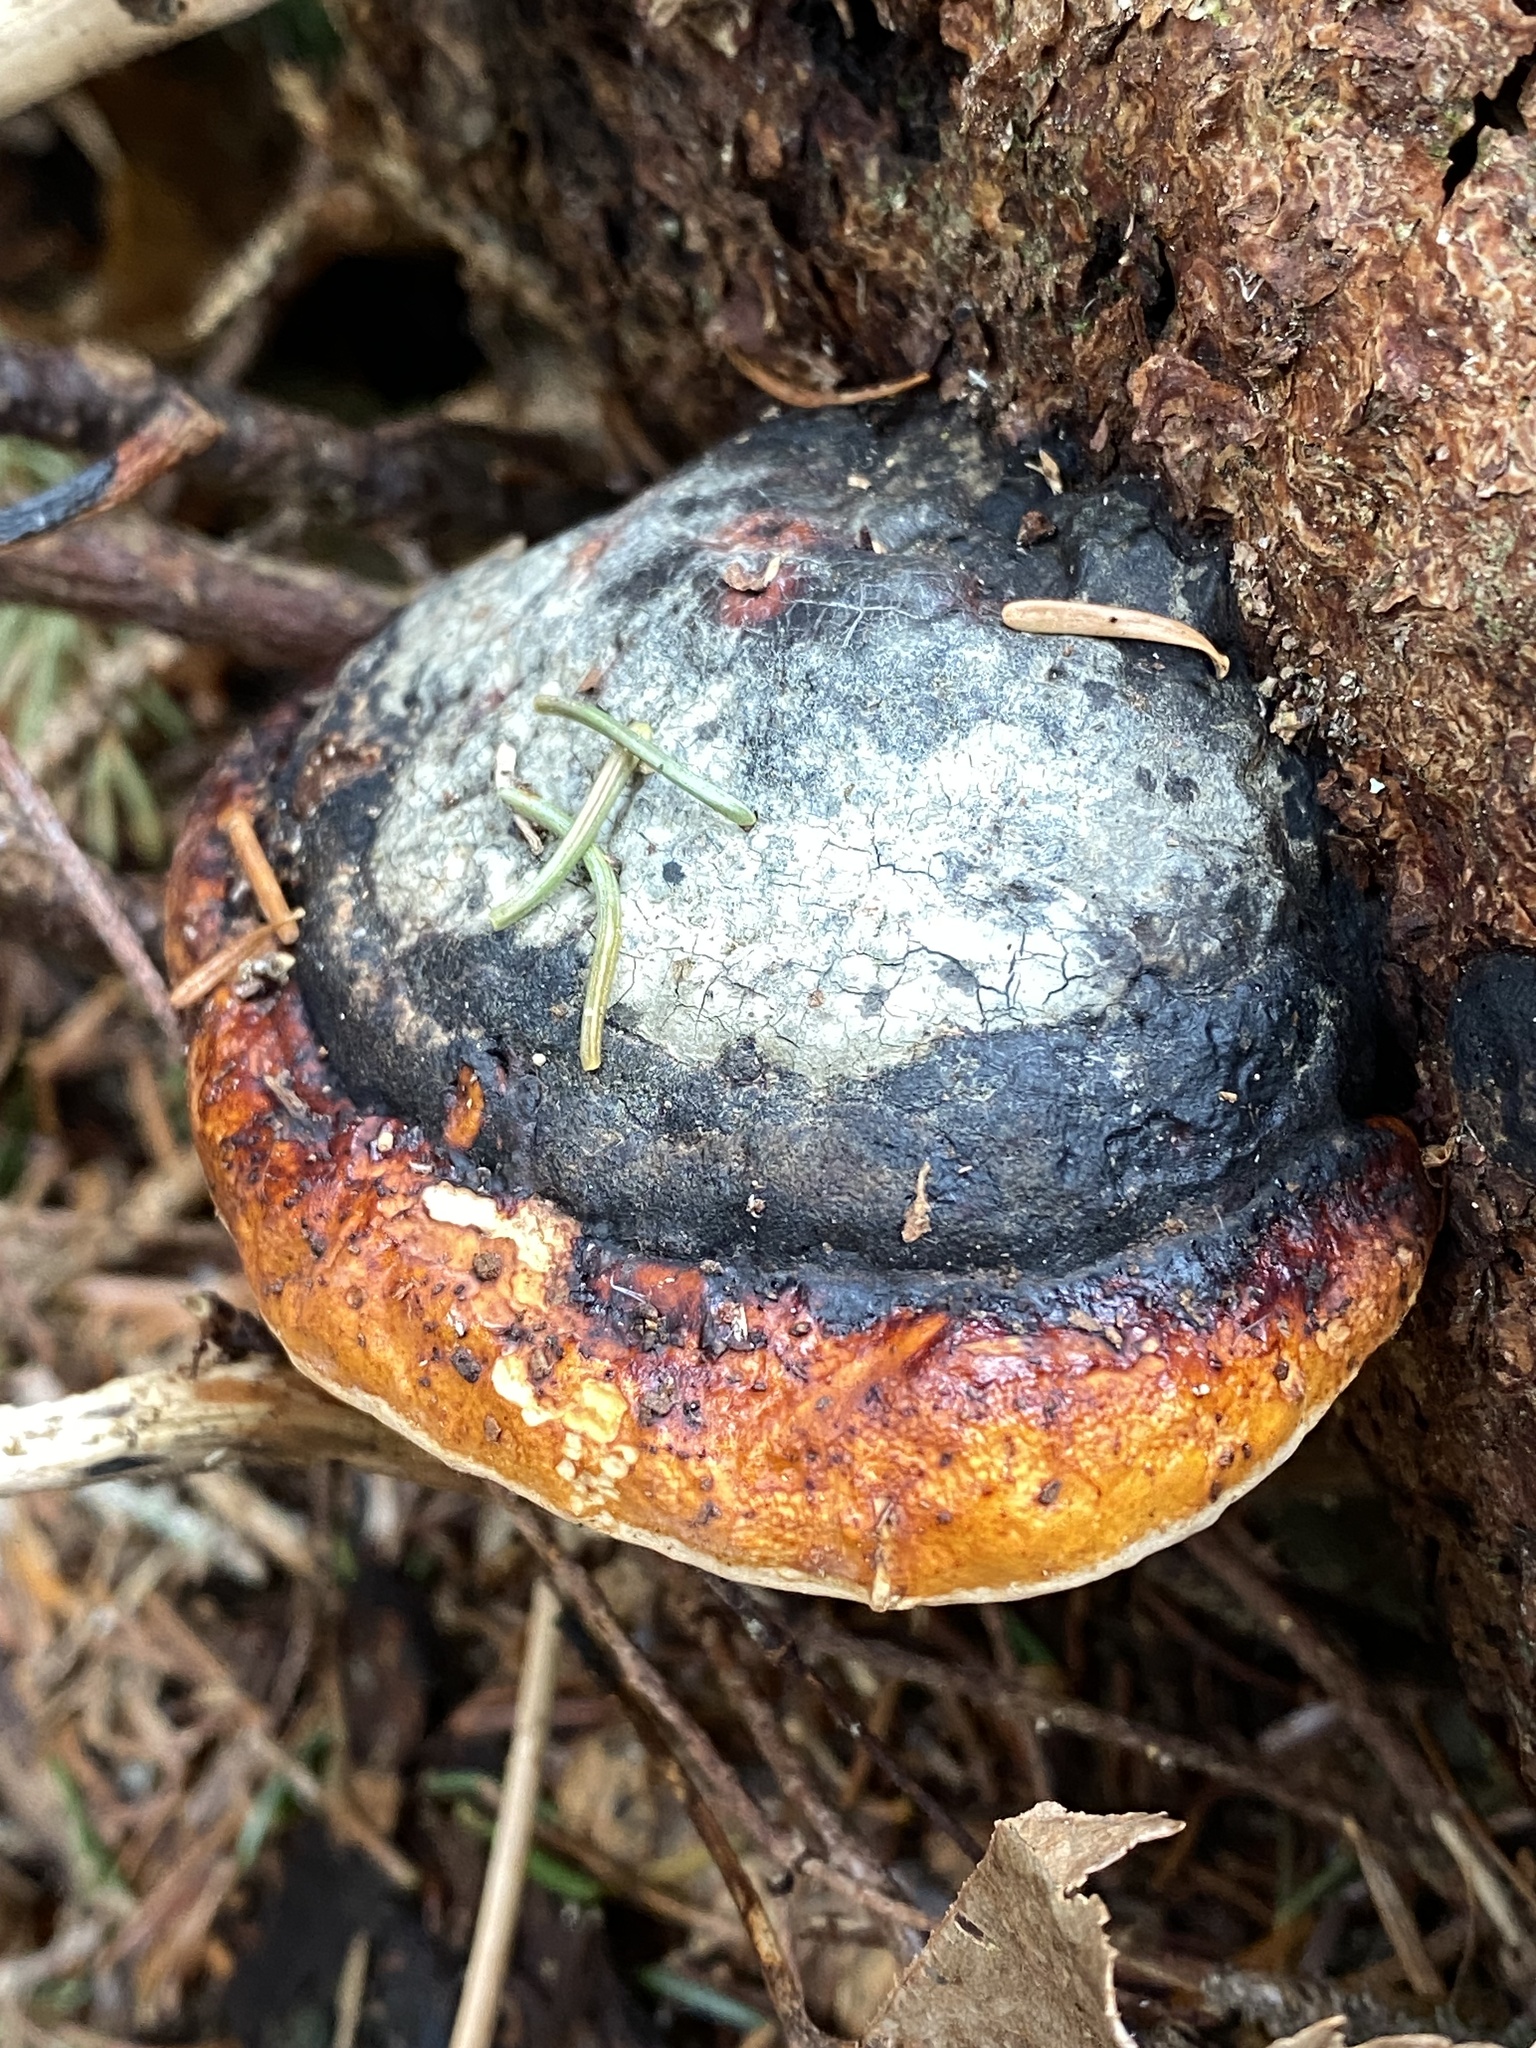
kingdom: Fungi
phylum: Basidiomycota
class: Agaricomycetes
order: Polyporales
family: Fomitopsidaceae
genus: Fomitopsis
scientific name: Fomitopsis mounceae
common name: Northern red belt
